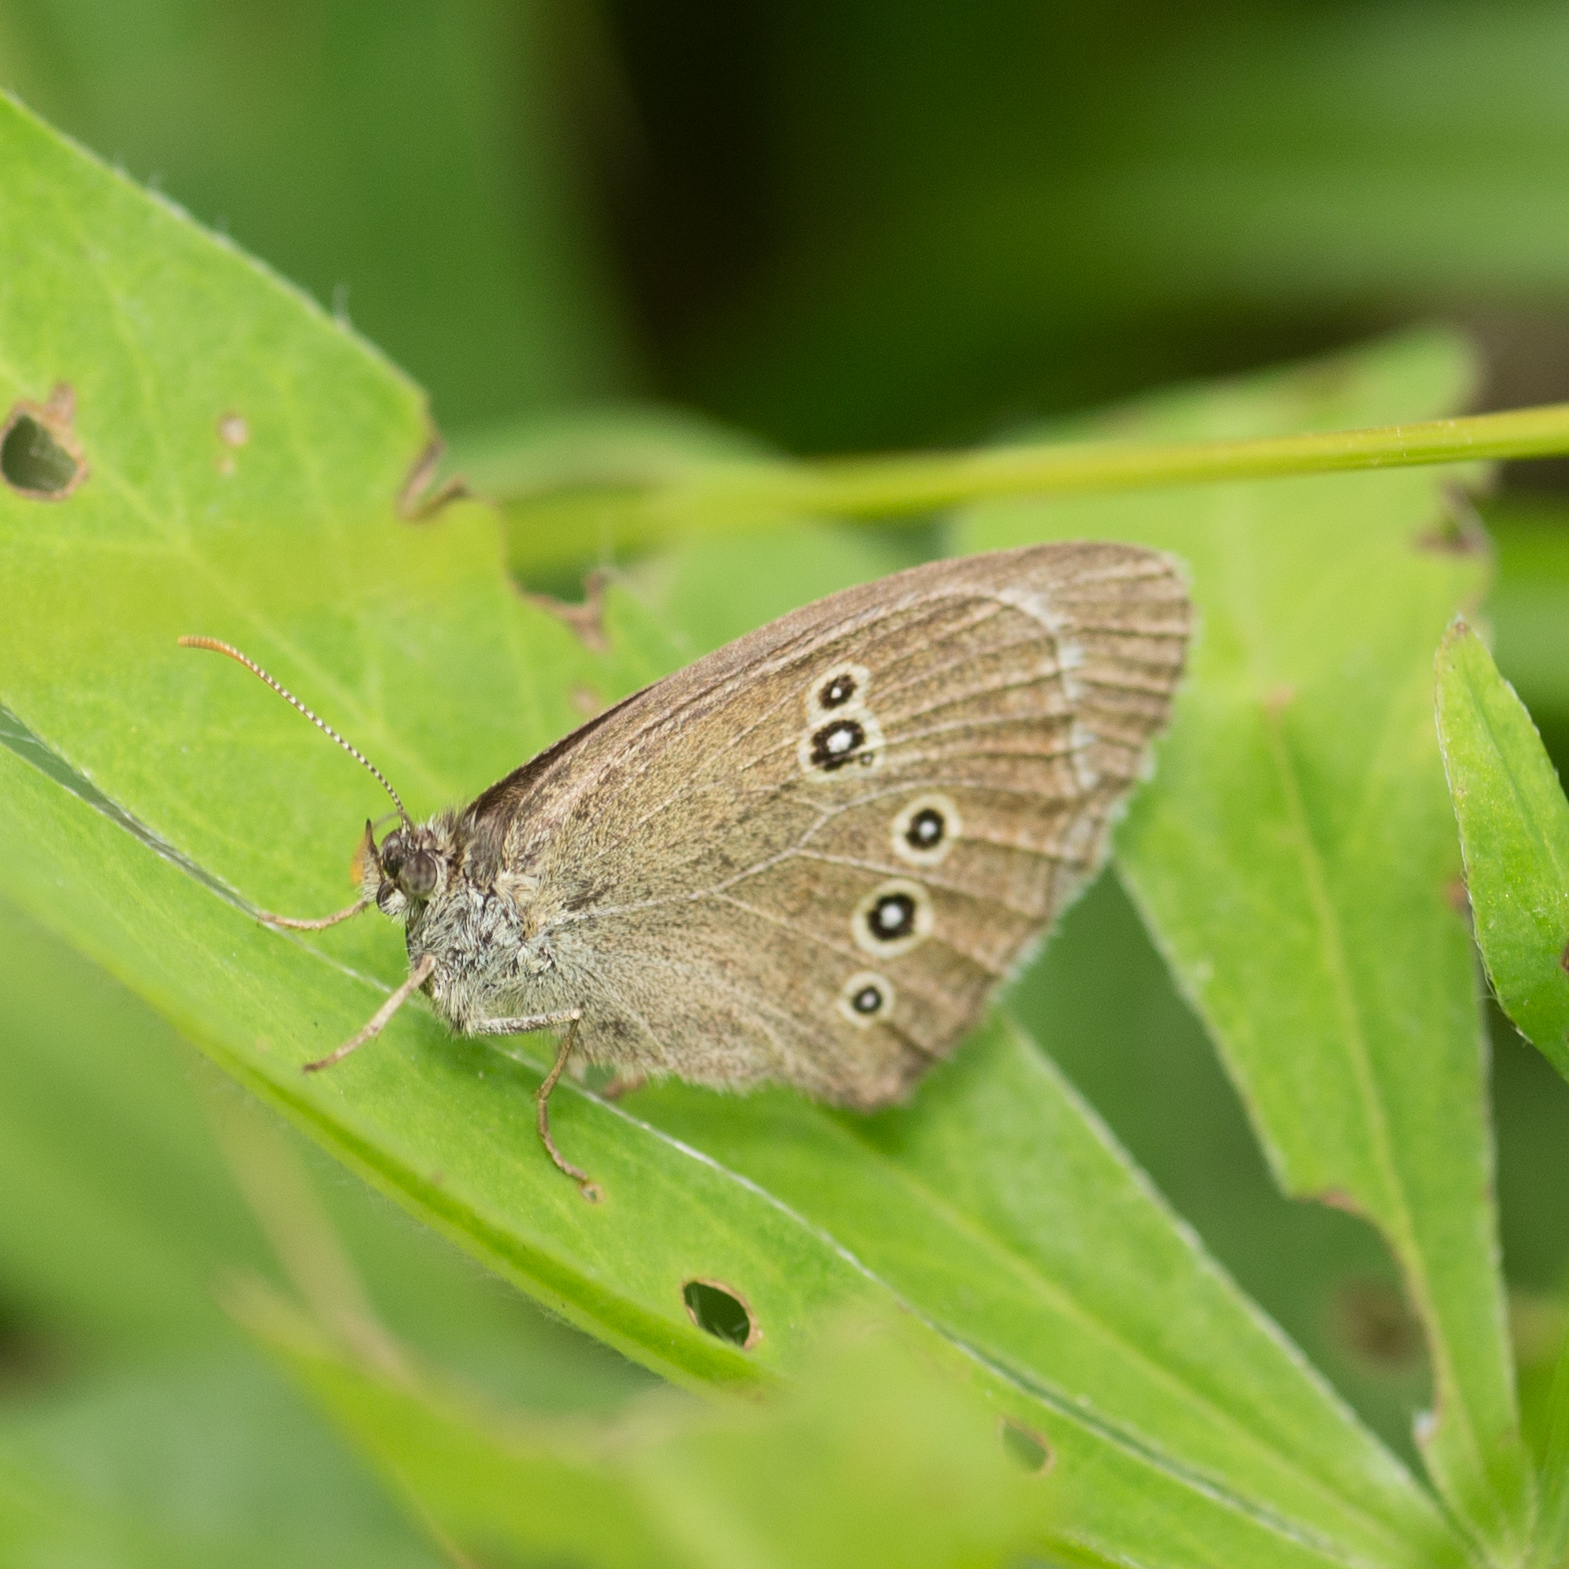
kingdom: Animalia
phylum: Arthropoda
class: Insecta
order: Lepidoptera
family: Nymphalidae
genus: Aphantopus
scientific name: Aphantopus hyperantus
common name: Ringlet
